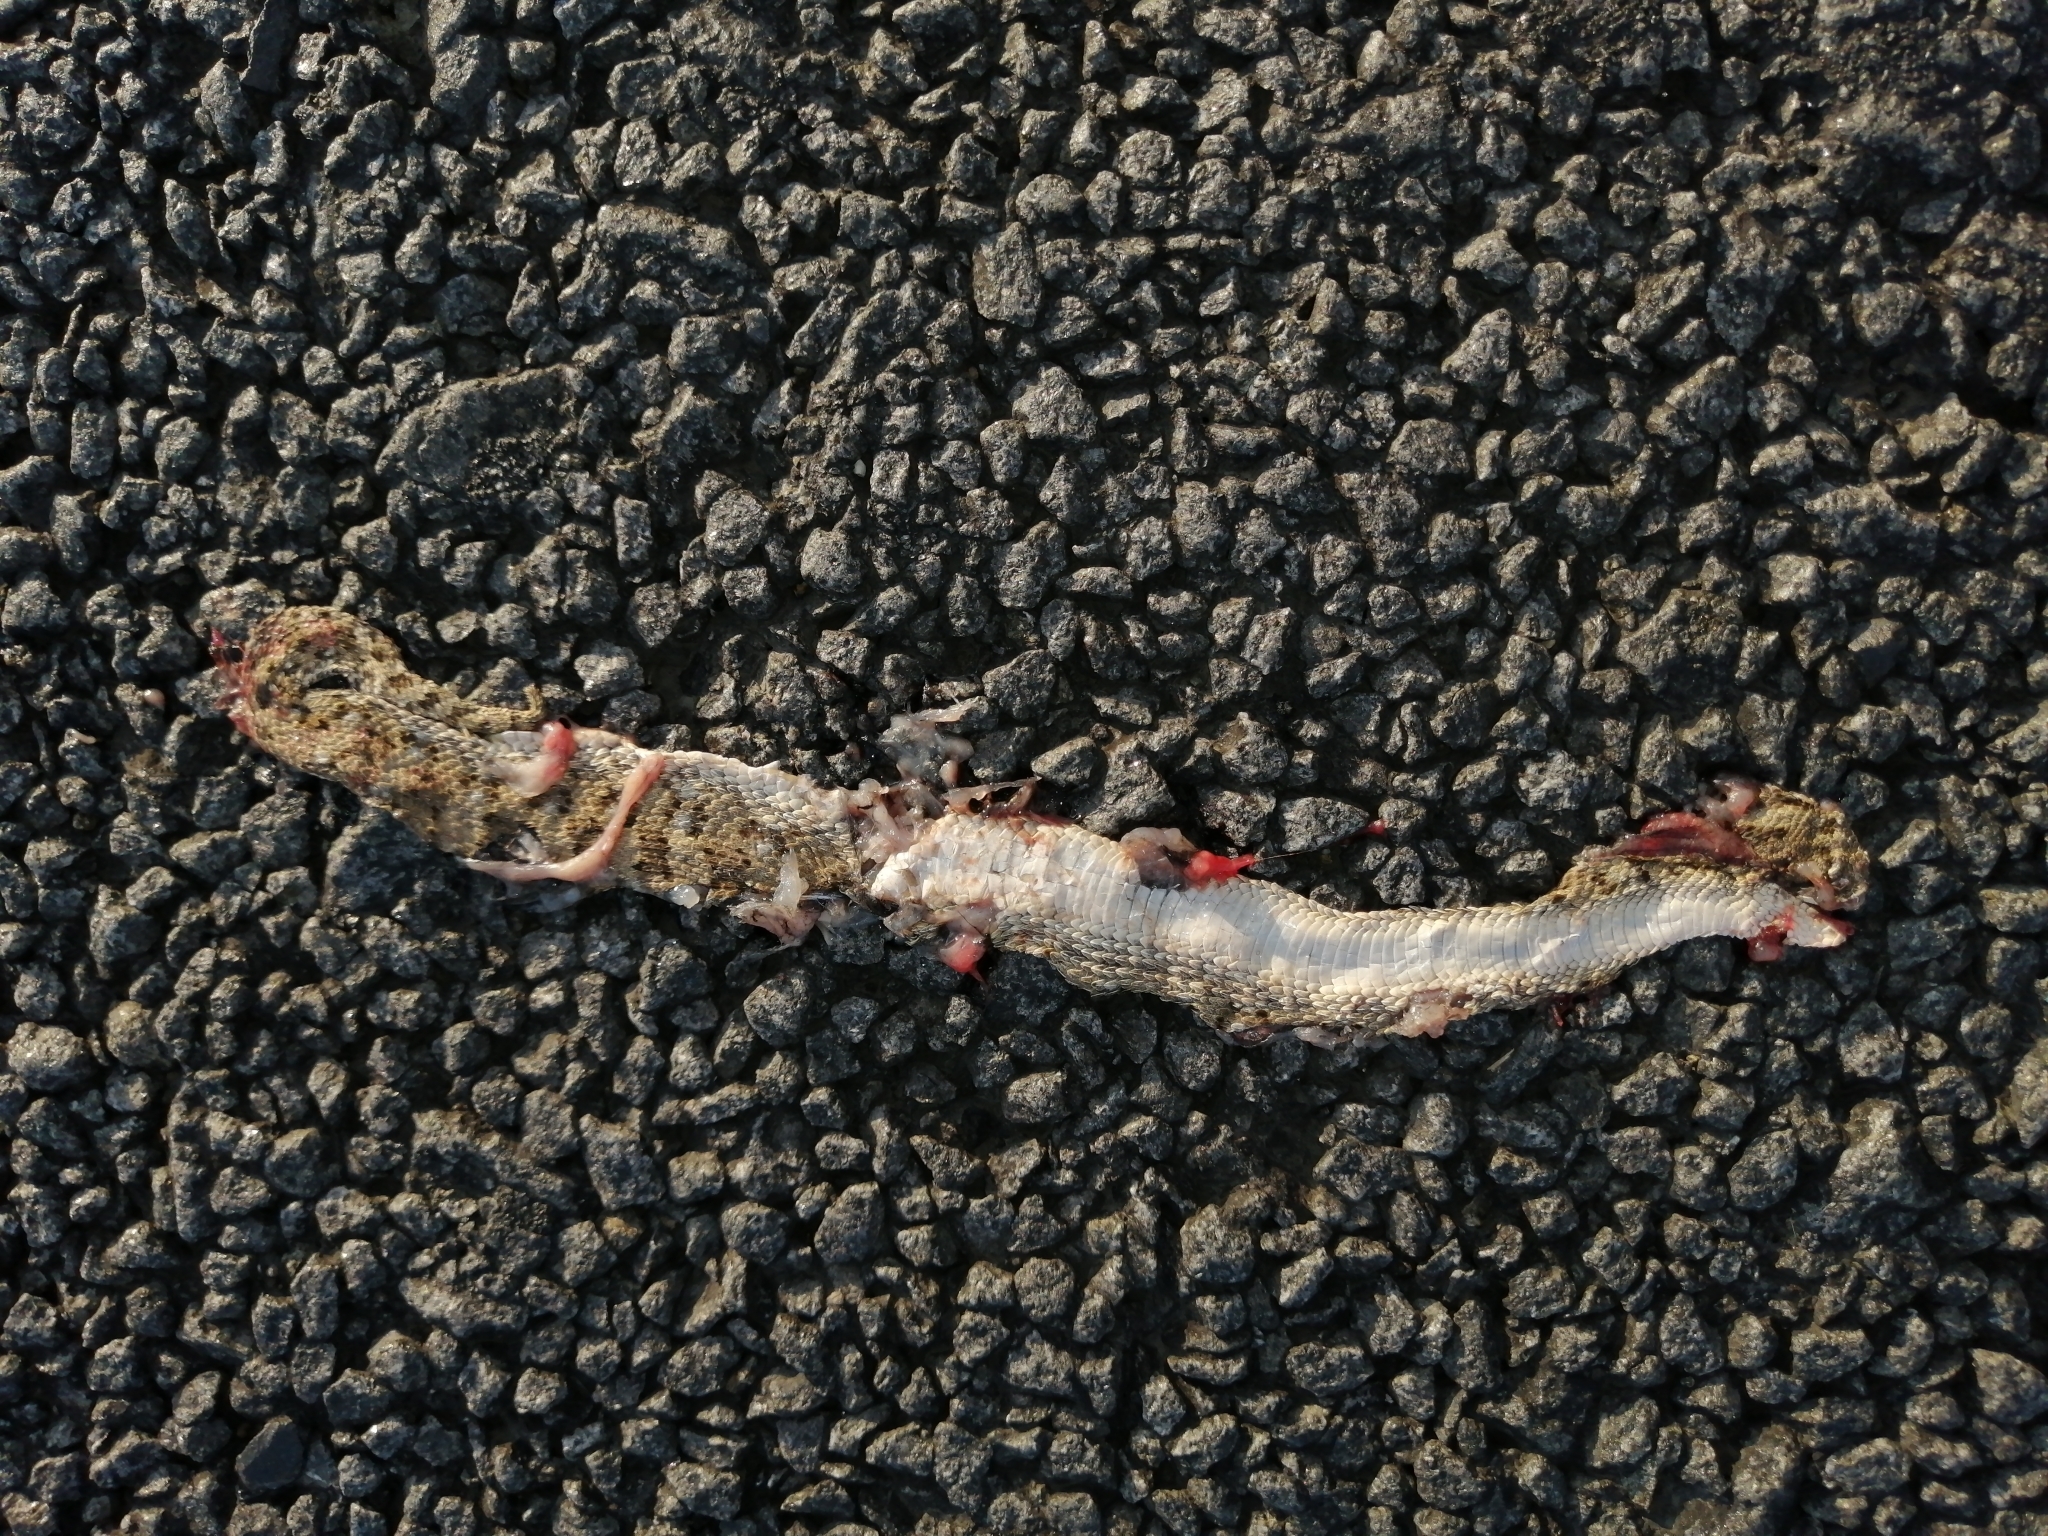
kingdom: Animalia
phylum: Chordata
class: Squamata
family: Viperidae
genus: Bitis
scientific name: Bitis caudalis
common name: Horned adder
